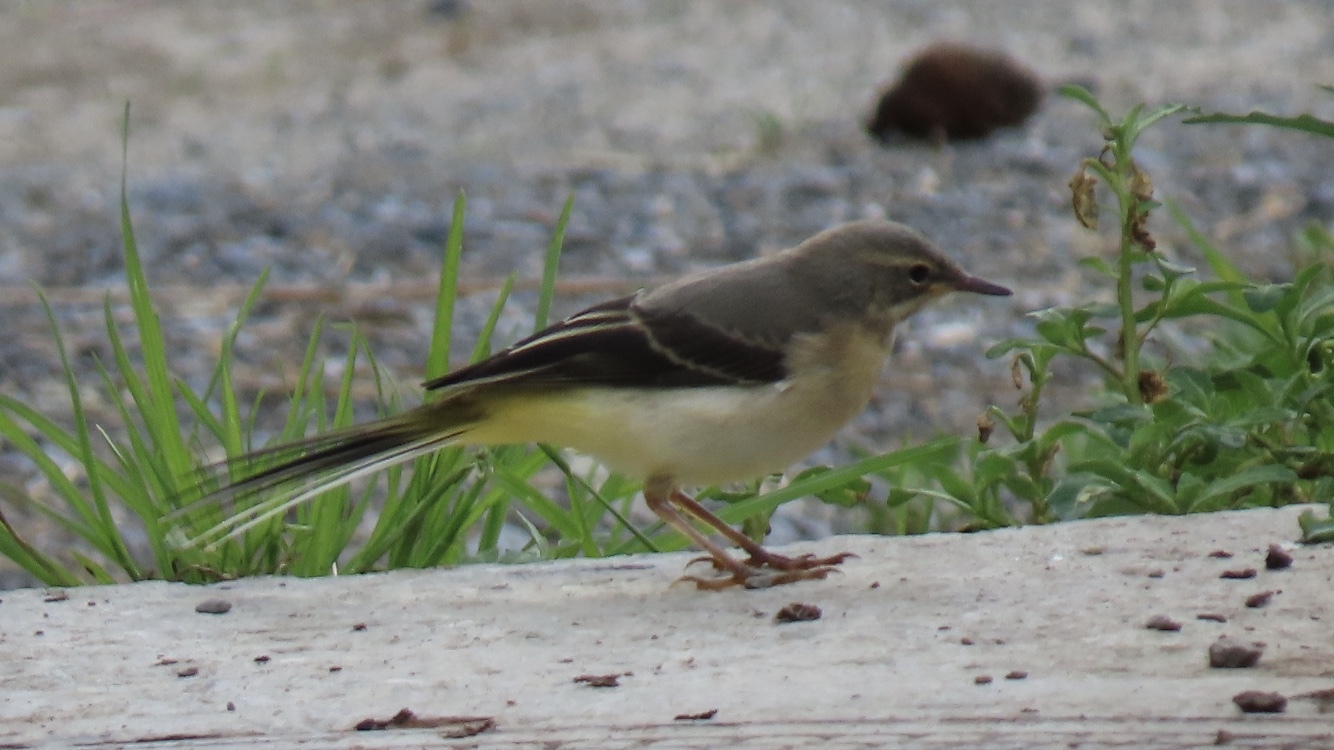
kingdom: Animalia
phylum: Chordata
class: Aves
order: Passeriformes
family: Motacillidae
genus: Motacilla
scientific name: Motacilla cinerea
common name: Grey wagtail
